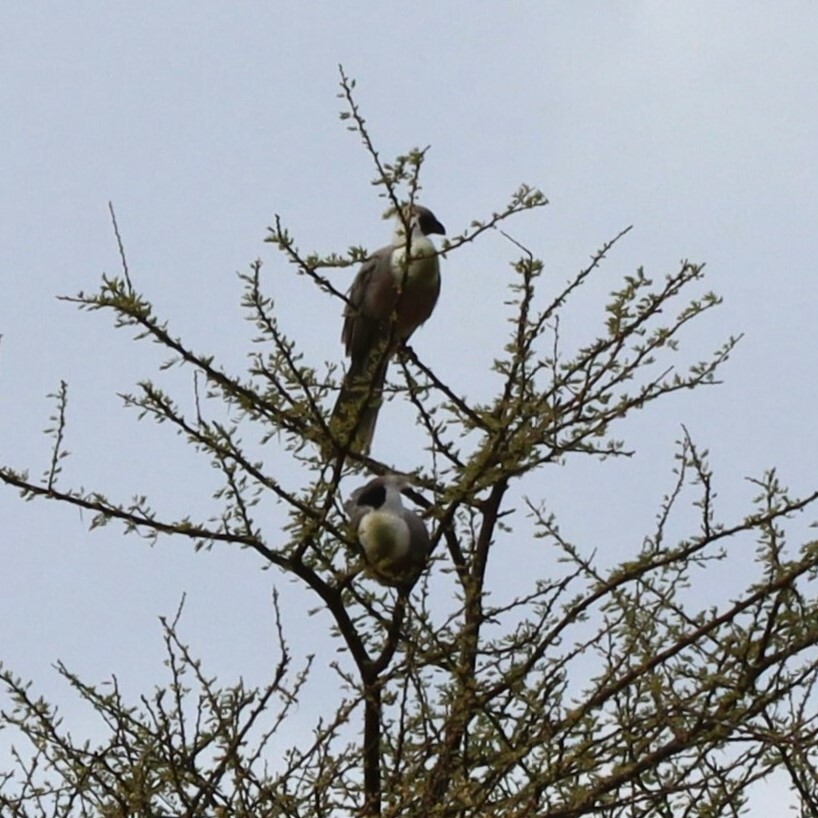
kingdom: Animalia
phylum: Chordata
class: Aves
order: Musophagiformes
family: Musophagidae
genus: Corythaixoides
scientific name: Corythaixoides personatus
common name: Bare-faced go-away-bird
